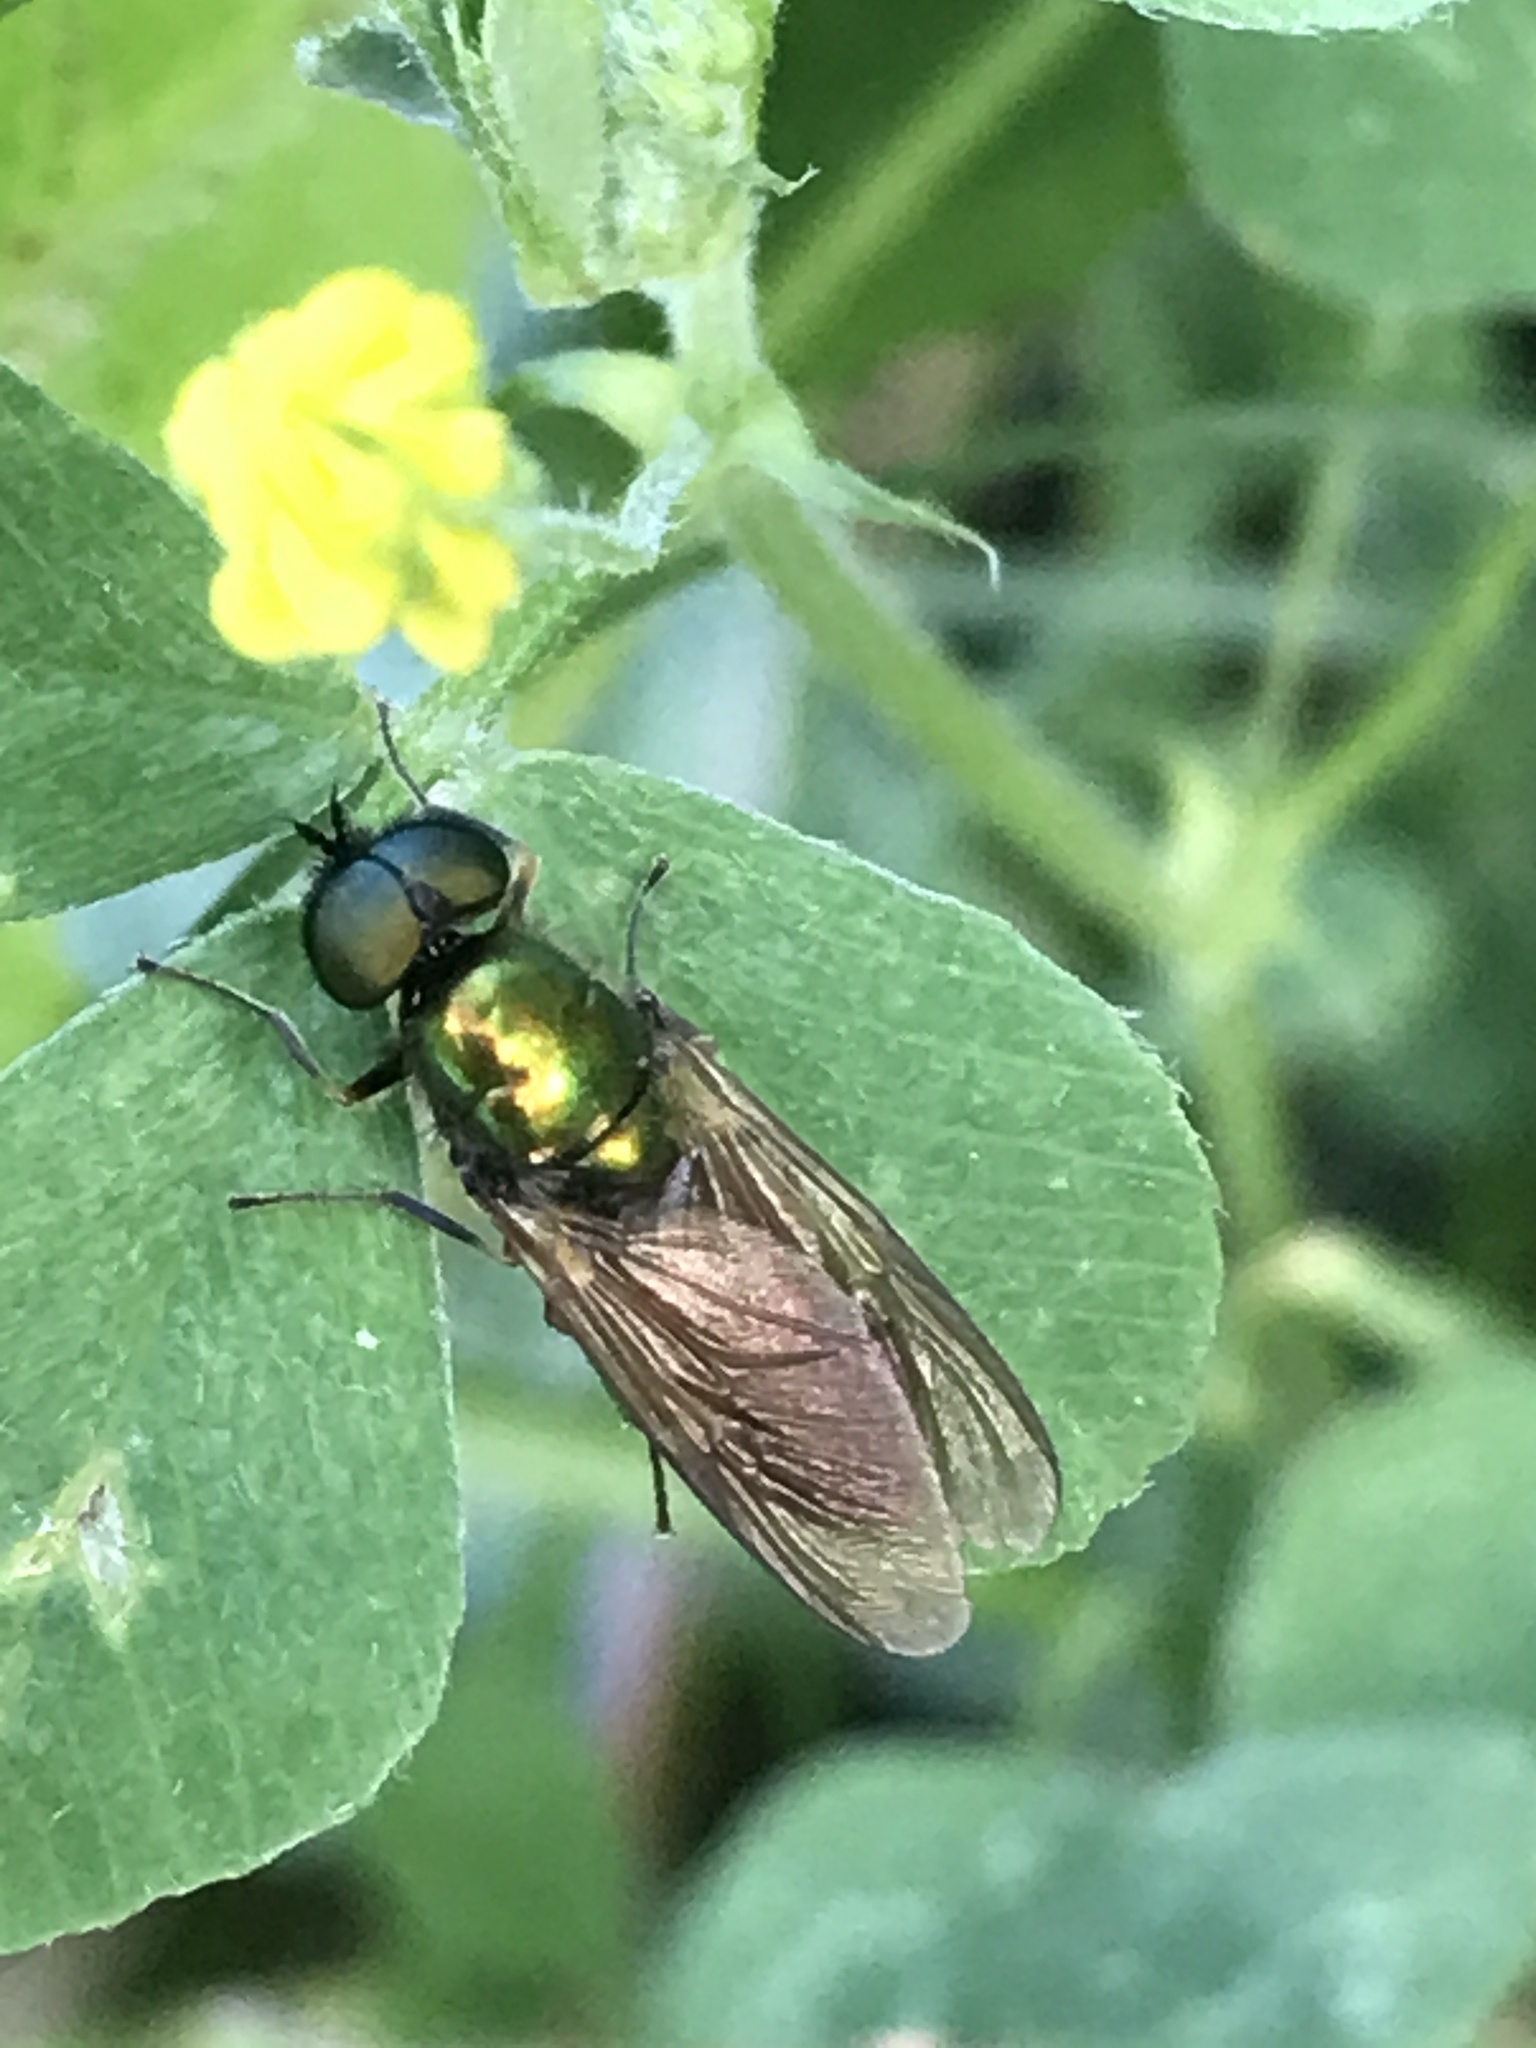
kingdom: Animalia
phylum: Arthropoda
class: Insecta
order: Diptera
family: Stratiomyidae
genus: Chloromyia
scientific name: Chloromyia formosa
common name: Soldier fly
